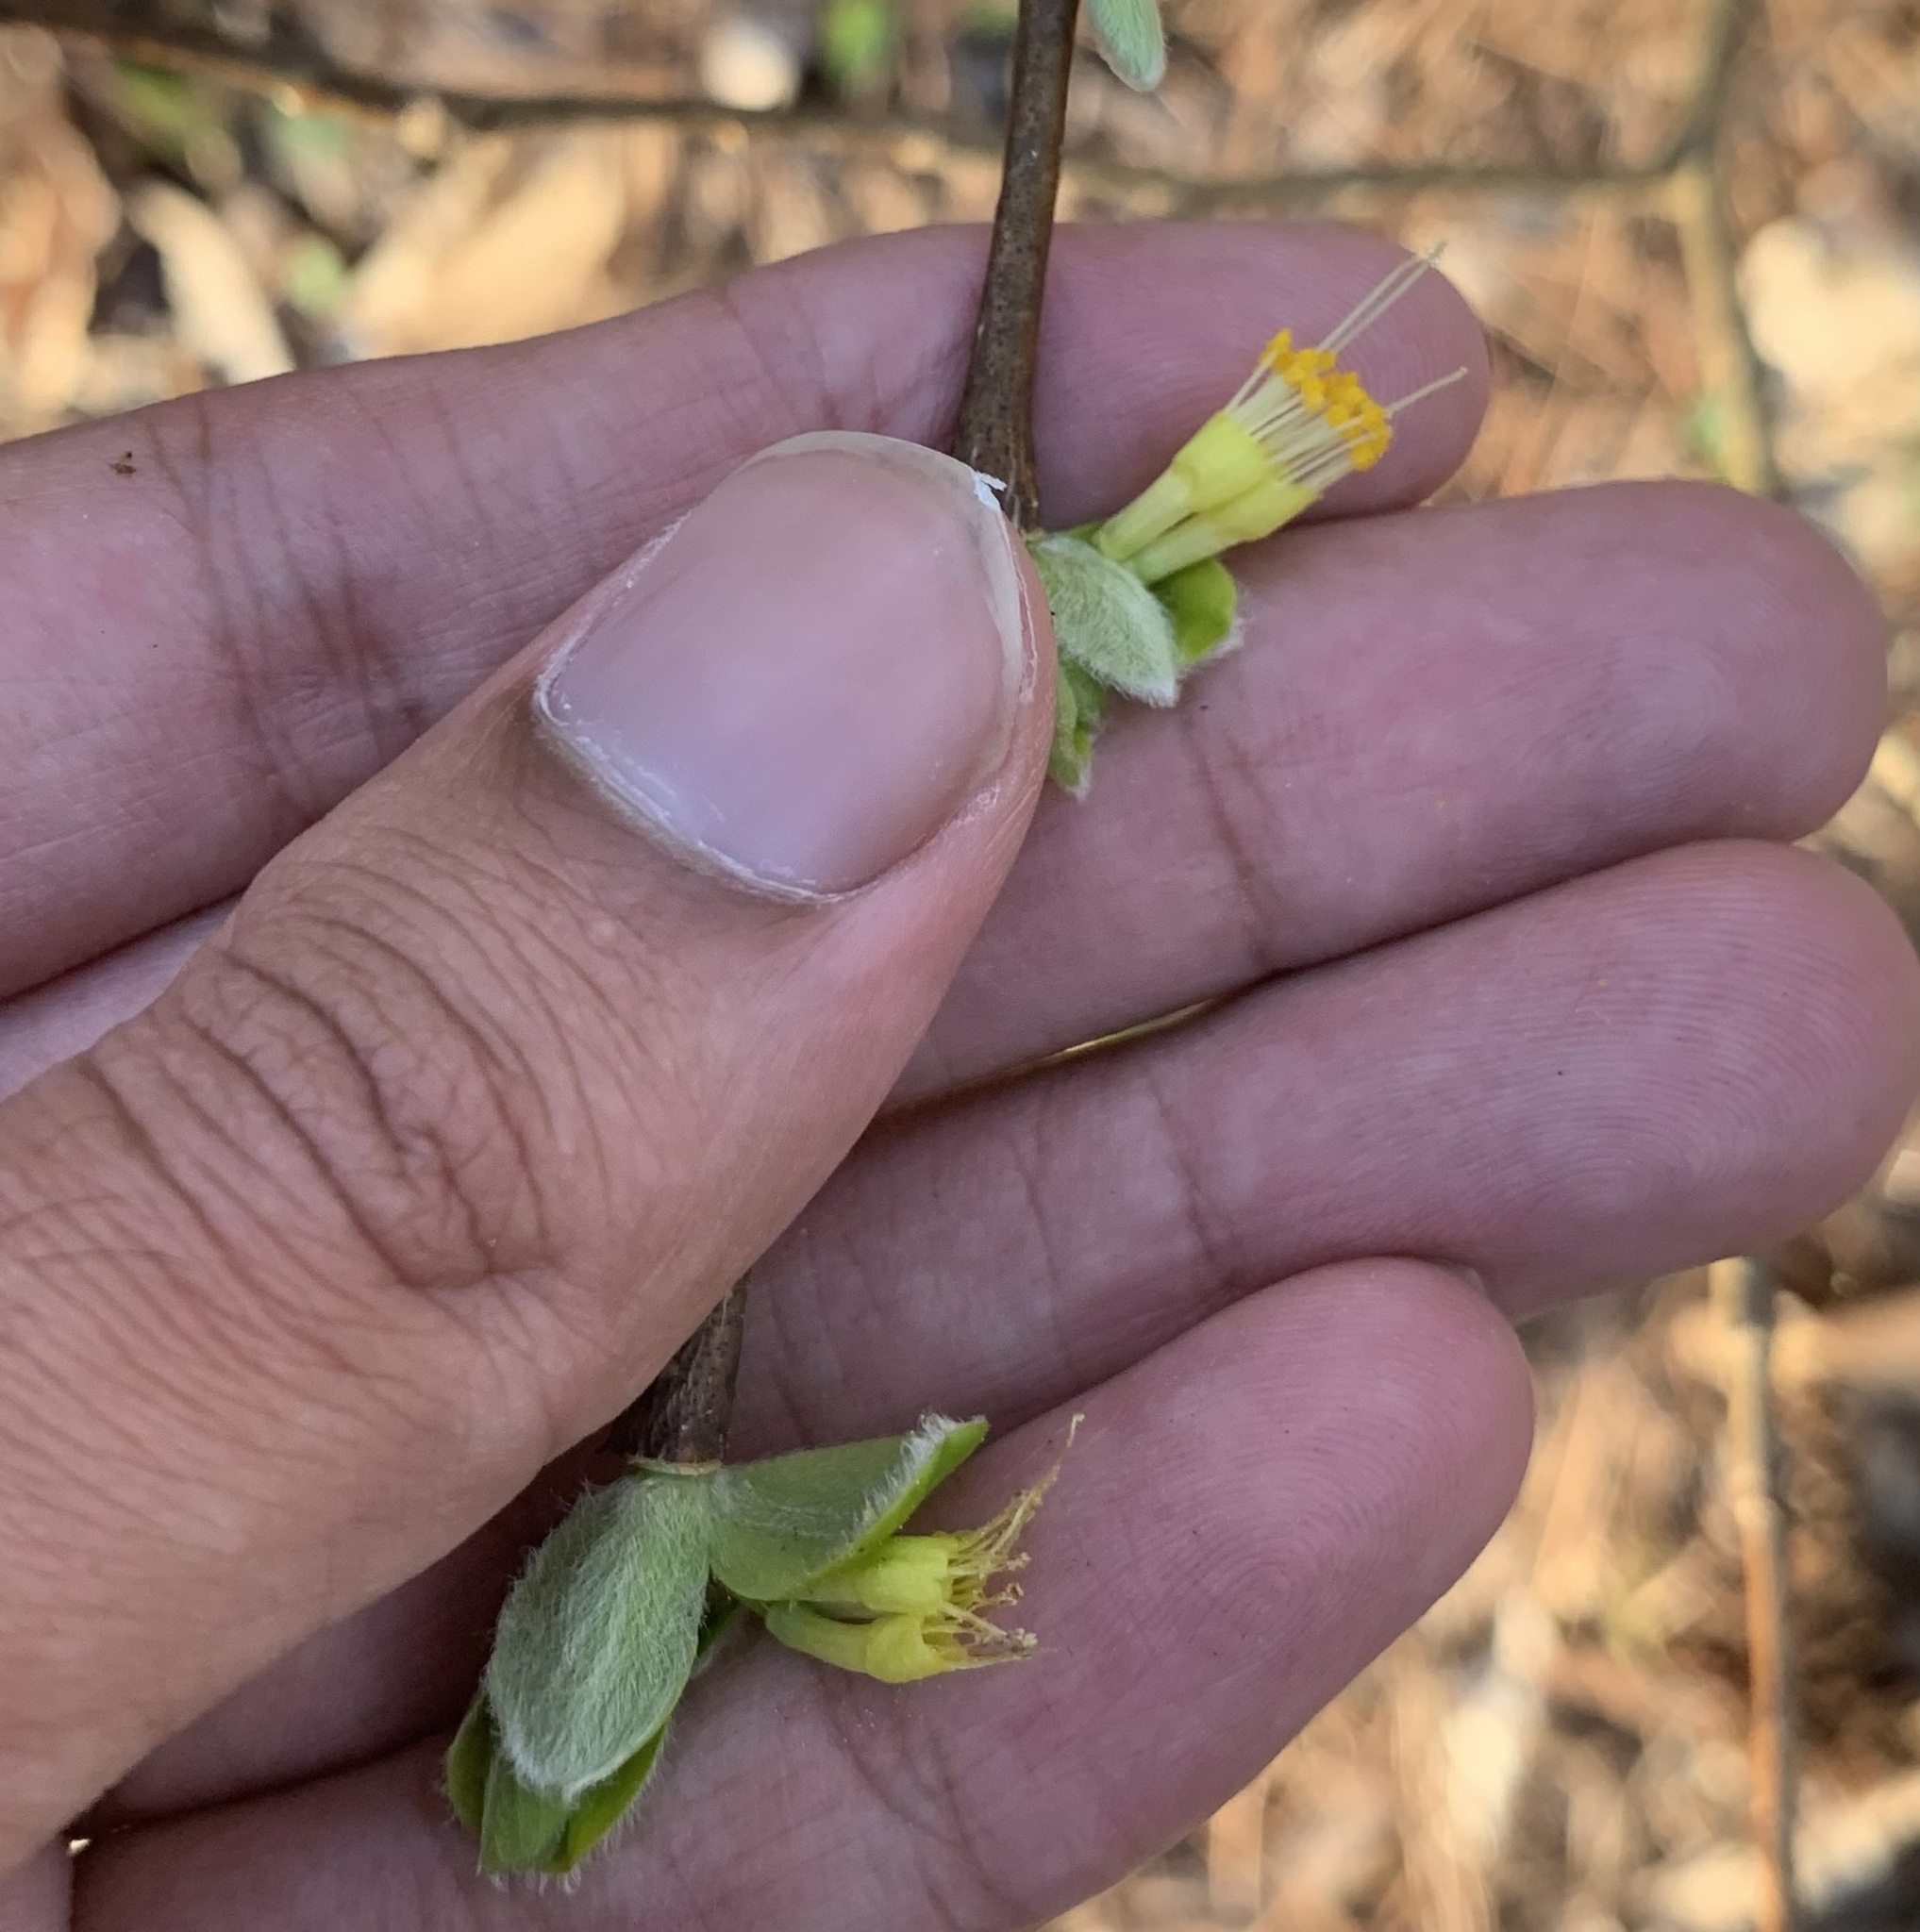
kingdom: Plantae
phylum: Tracheophyta
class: Magnoliopsida
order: Malvales
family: Thymelaeaceae
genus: Dirca
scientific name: Dirca palustris
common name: Leatherwood
